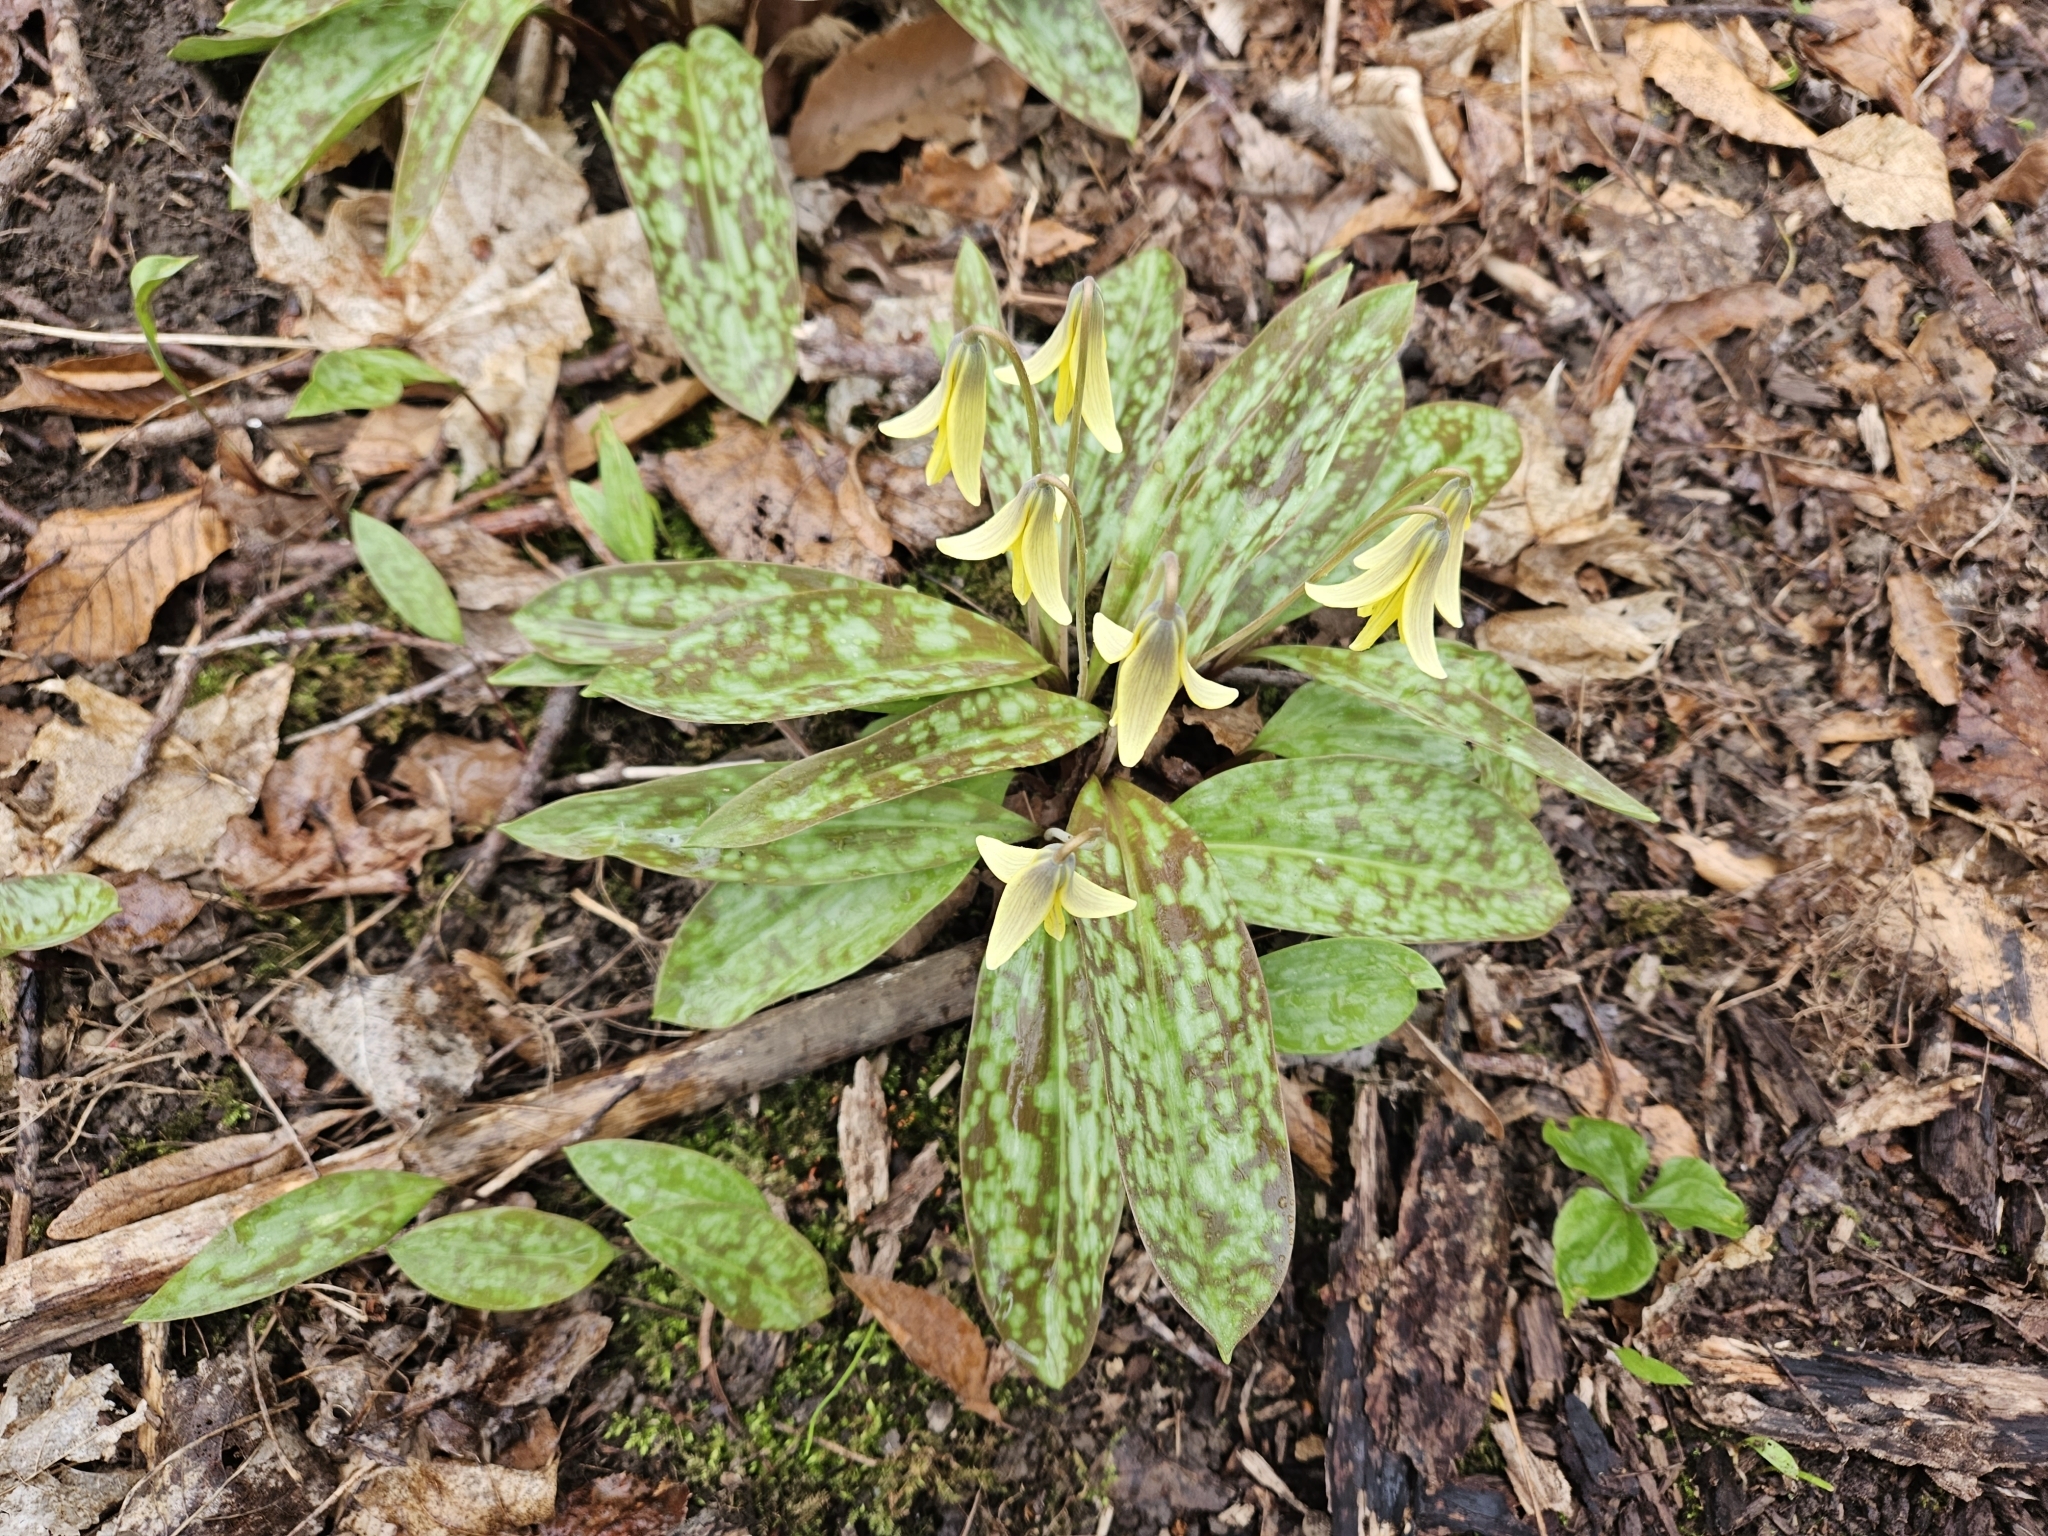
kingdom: Plantae
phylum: Tracheophyta
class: Liliopsida
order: Liliales
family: Liliaceae
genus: Erythronium
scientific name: Erythronium americanum
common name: Yellow adder's-tongue
